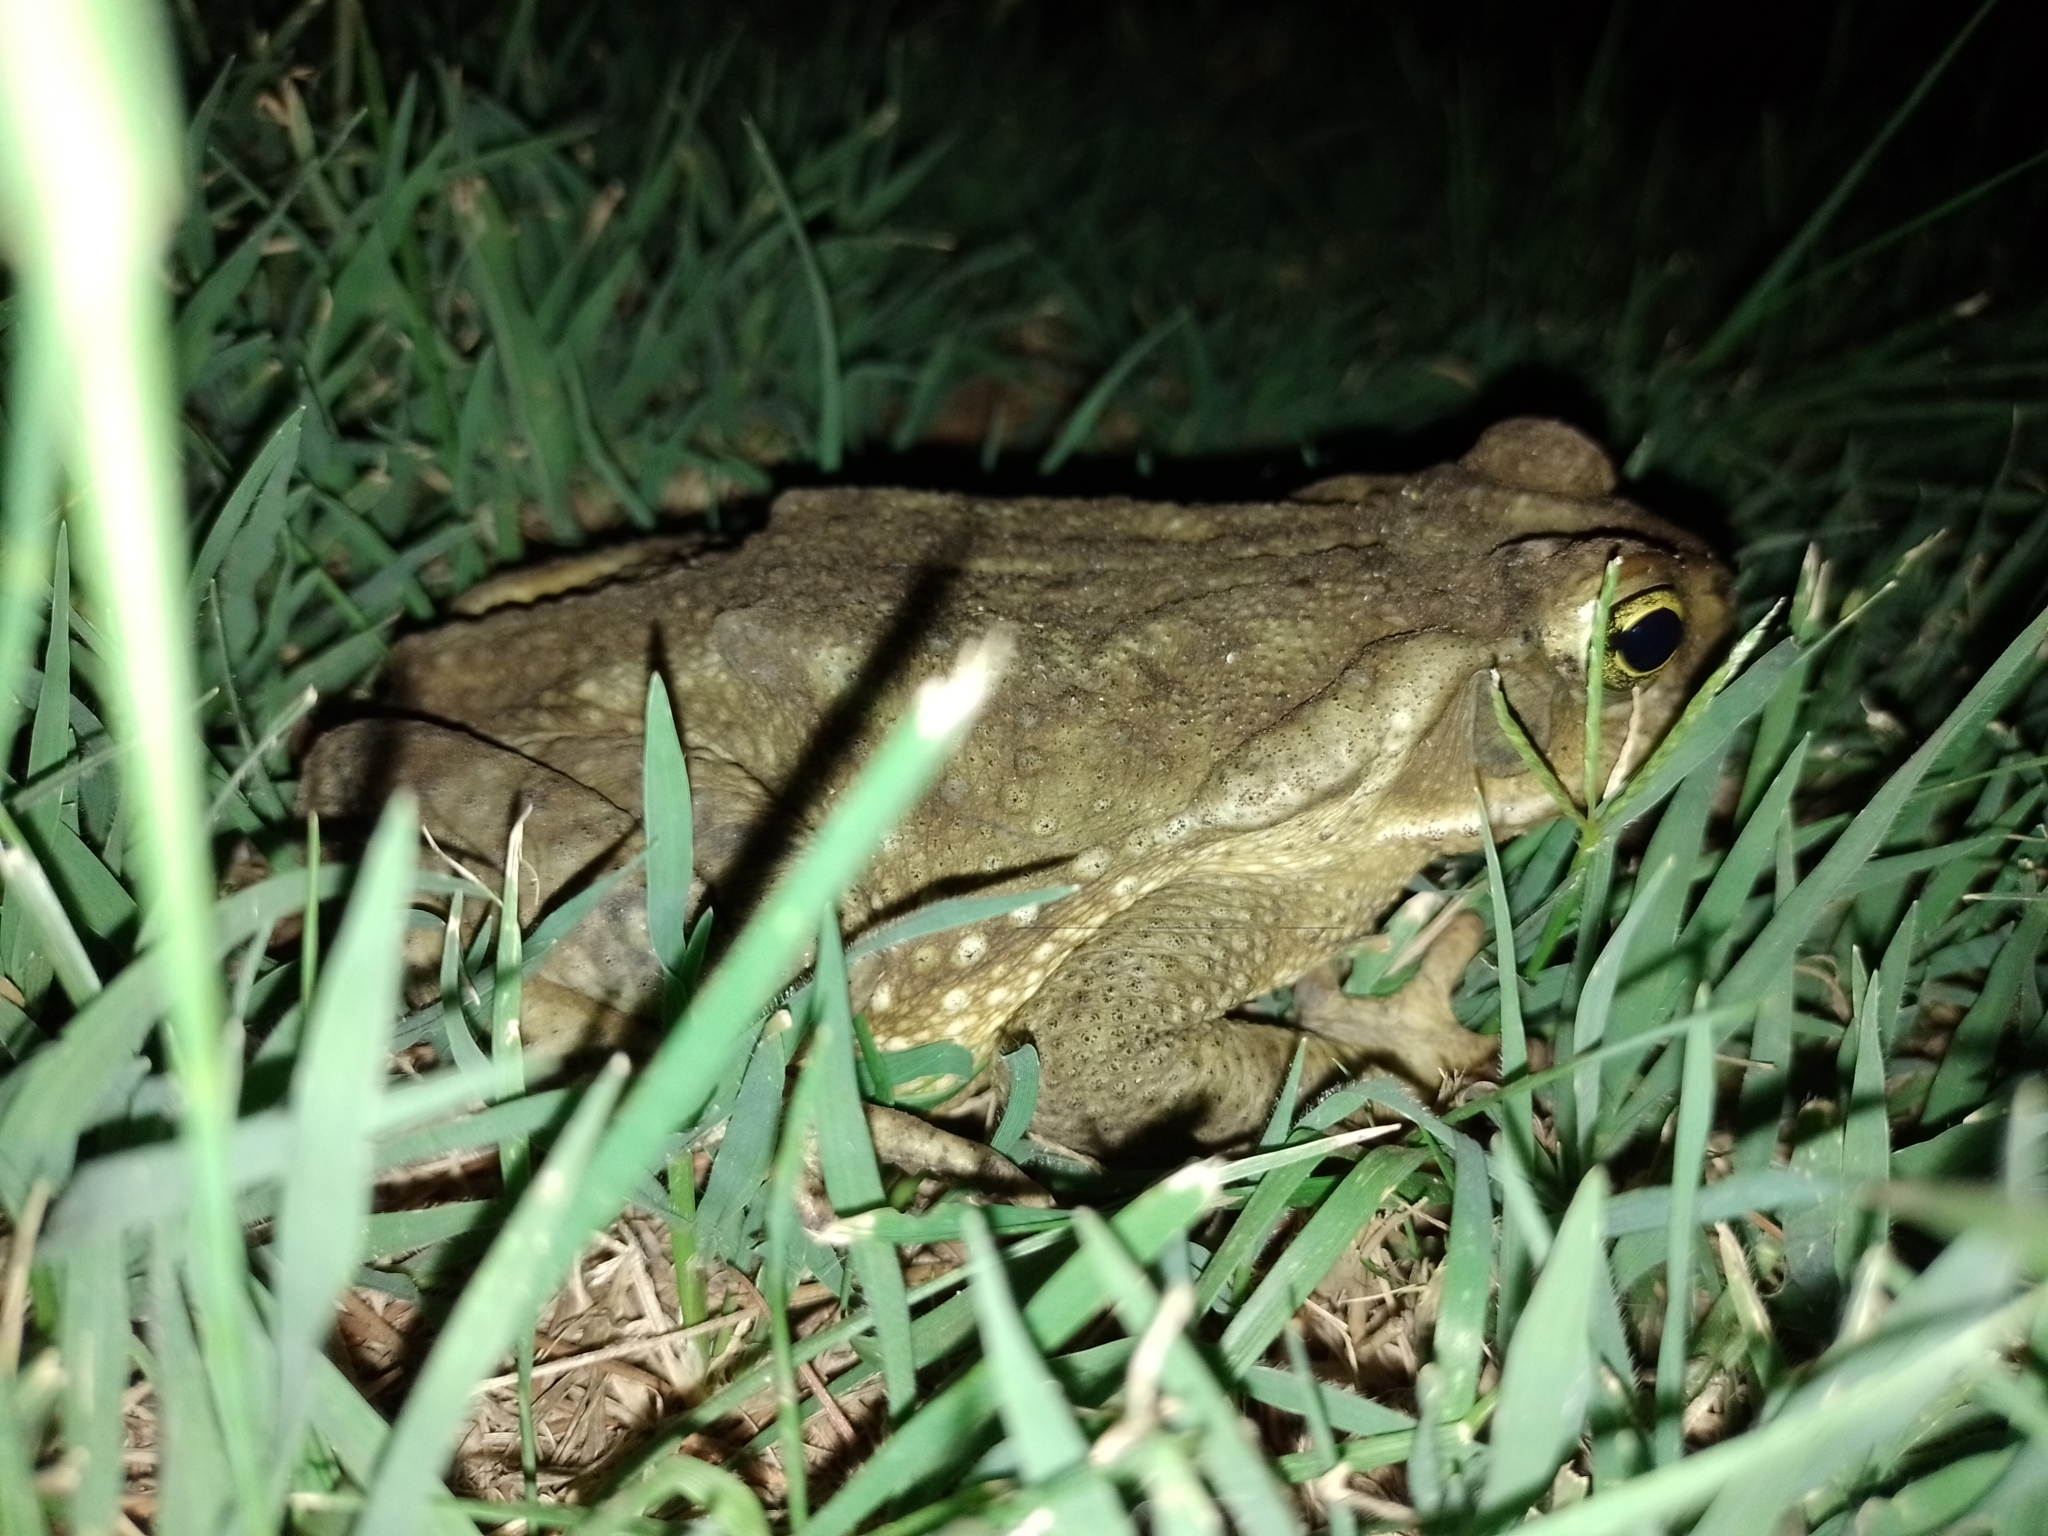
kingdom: Animalia
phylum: Chordata
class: Amphibia
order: Anura
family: Bufonidae
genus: Rhinella
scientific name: Rhinella arenarum
